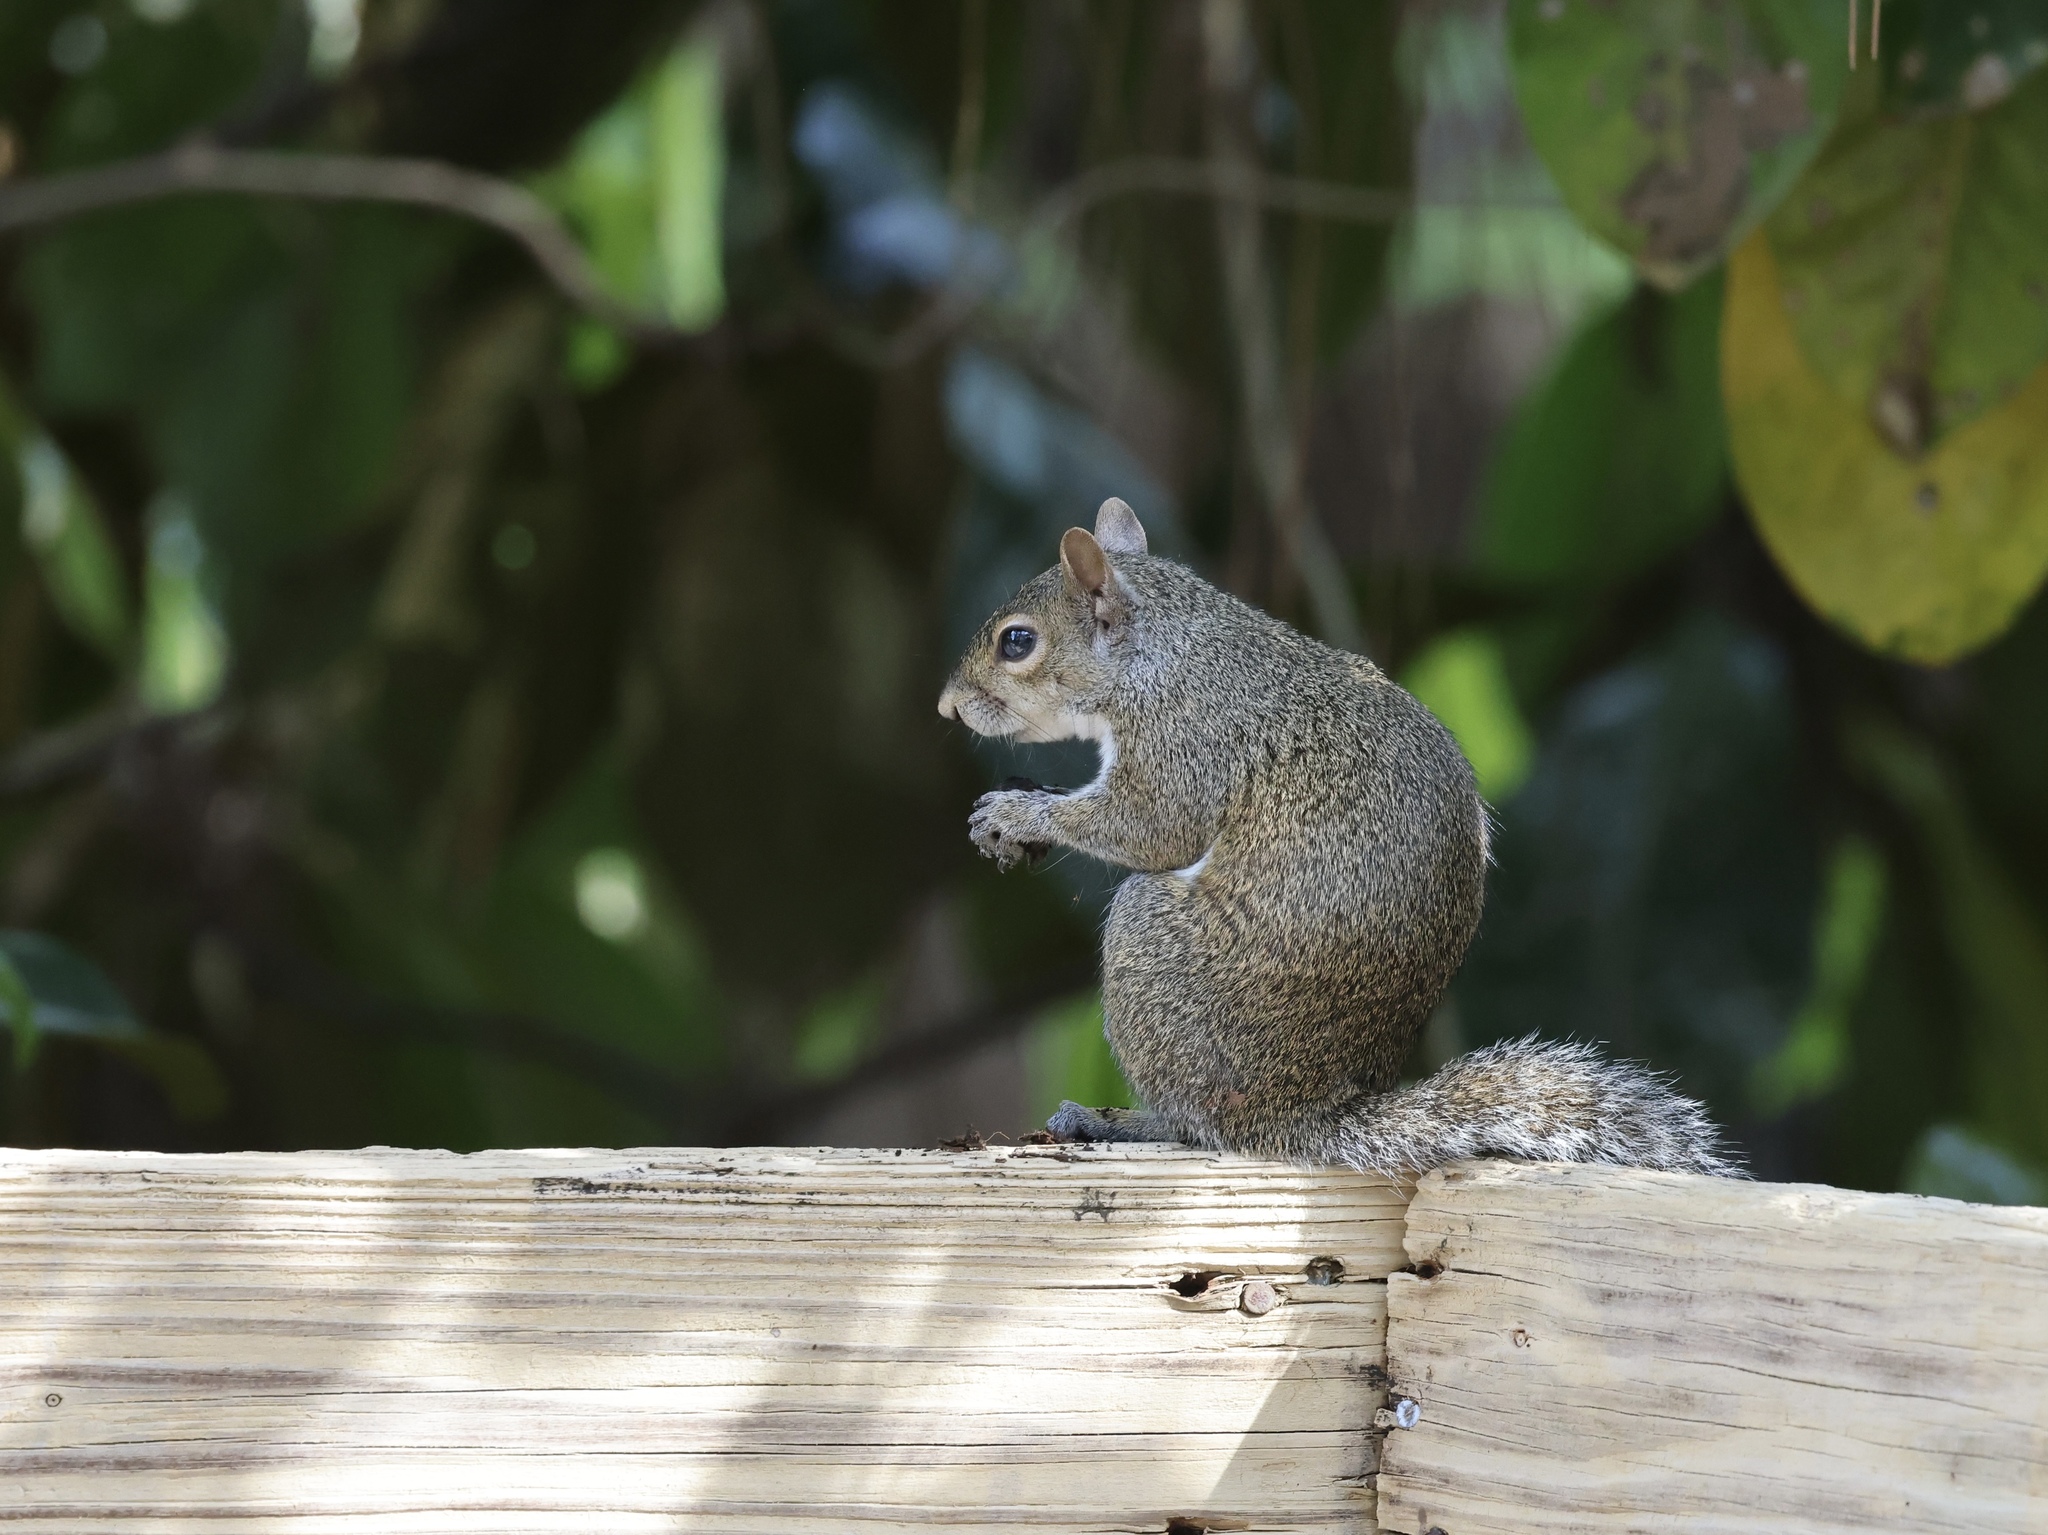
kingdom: Animalia
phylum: Chordata
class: Mammalia
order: Rodentia
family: Sciuridae
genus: Sciurus
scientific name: Sciurus carolinensis
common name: Eastern gray squirrel
